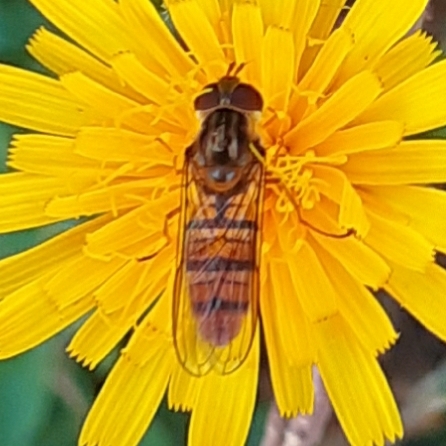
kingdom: Animalia
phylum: Arthropoda
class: Insecta
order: Diptera
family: Syrphidae
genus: Episyrphus
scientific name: Episyrphus balteatus
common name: Marmalade hoverfly
